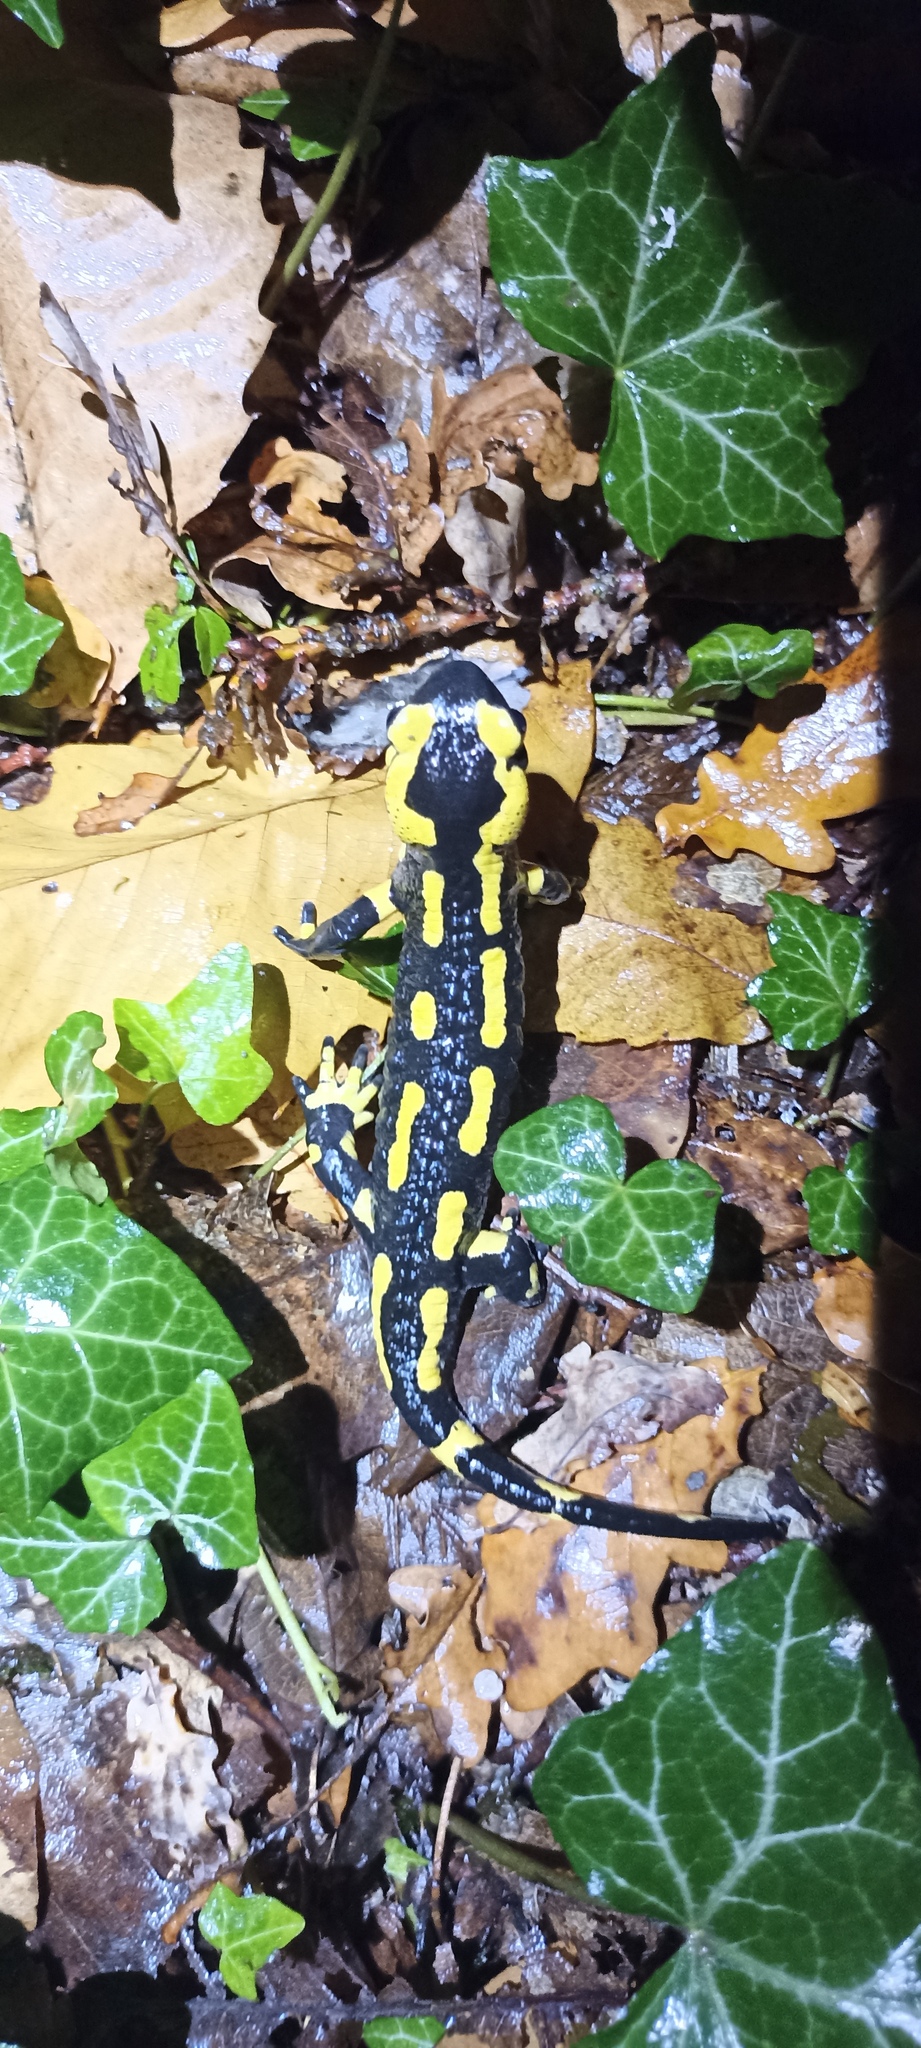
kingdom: Animalia
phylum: Chordata
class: Amphibia
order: Caudata
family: Salamandridae
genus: Salamandra
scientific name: Salamandra salamandra
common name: Fire salamander
